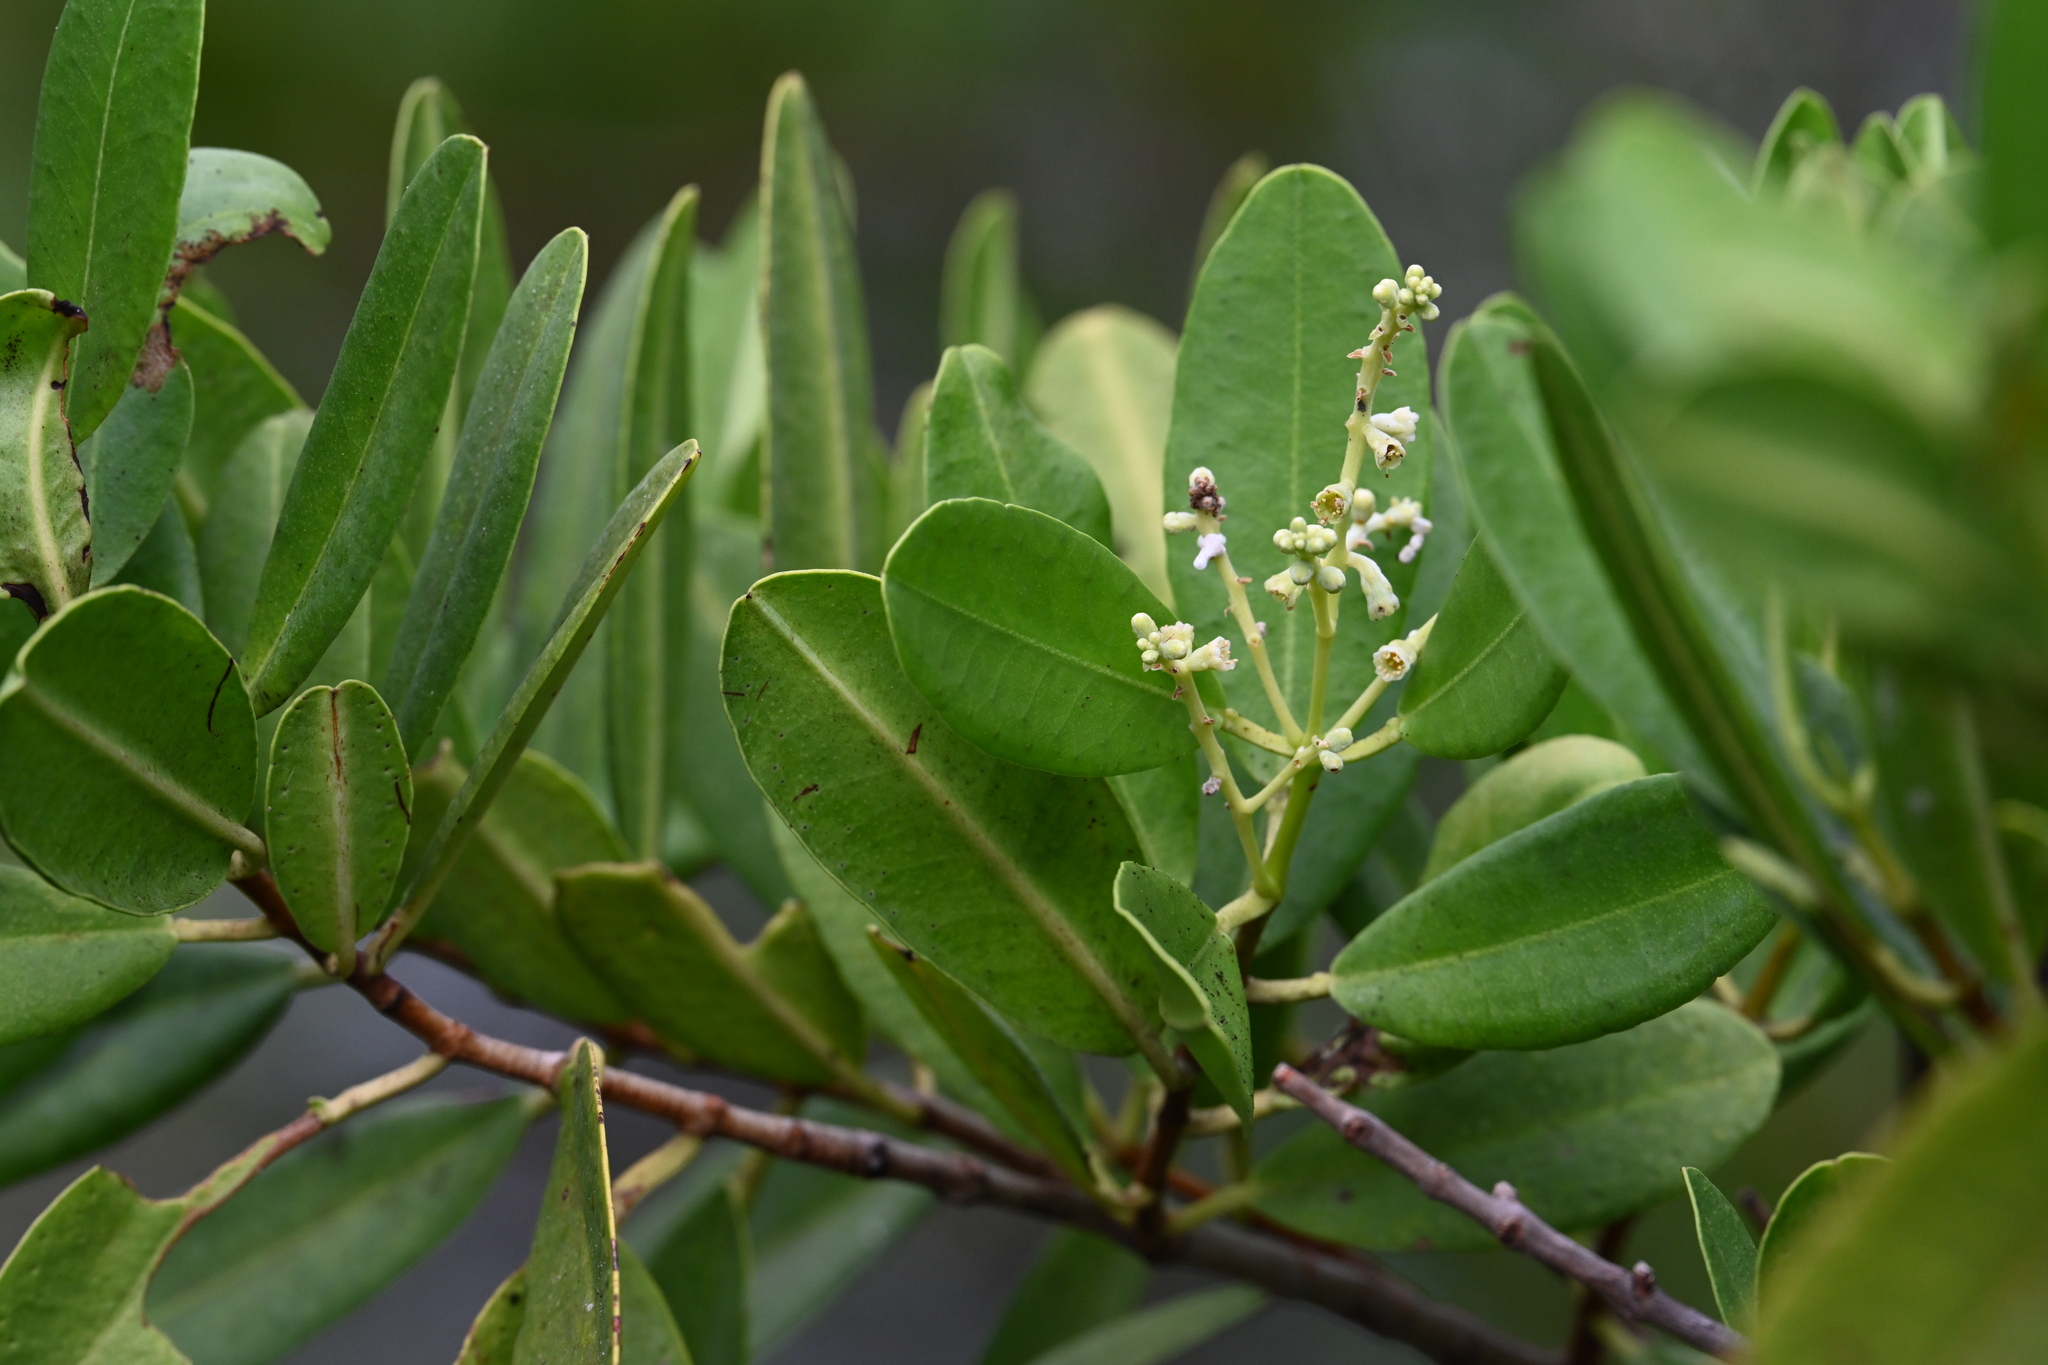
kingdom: Plantae
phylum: Tracheophyta
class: Magnoliopsida
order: Myrtales
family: Combretaceae
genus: Laguncularia
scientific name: Laguncularia racemosa
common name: White mangrove
